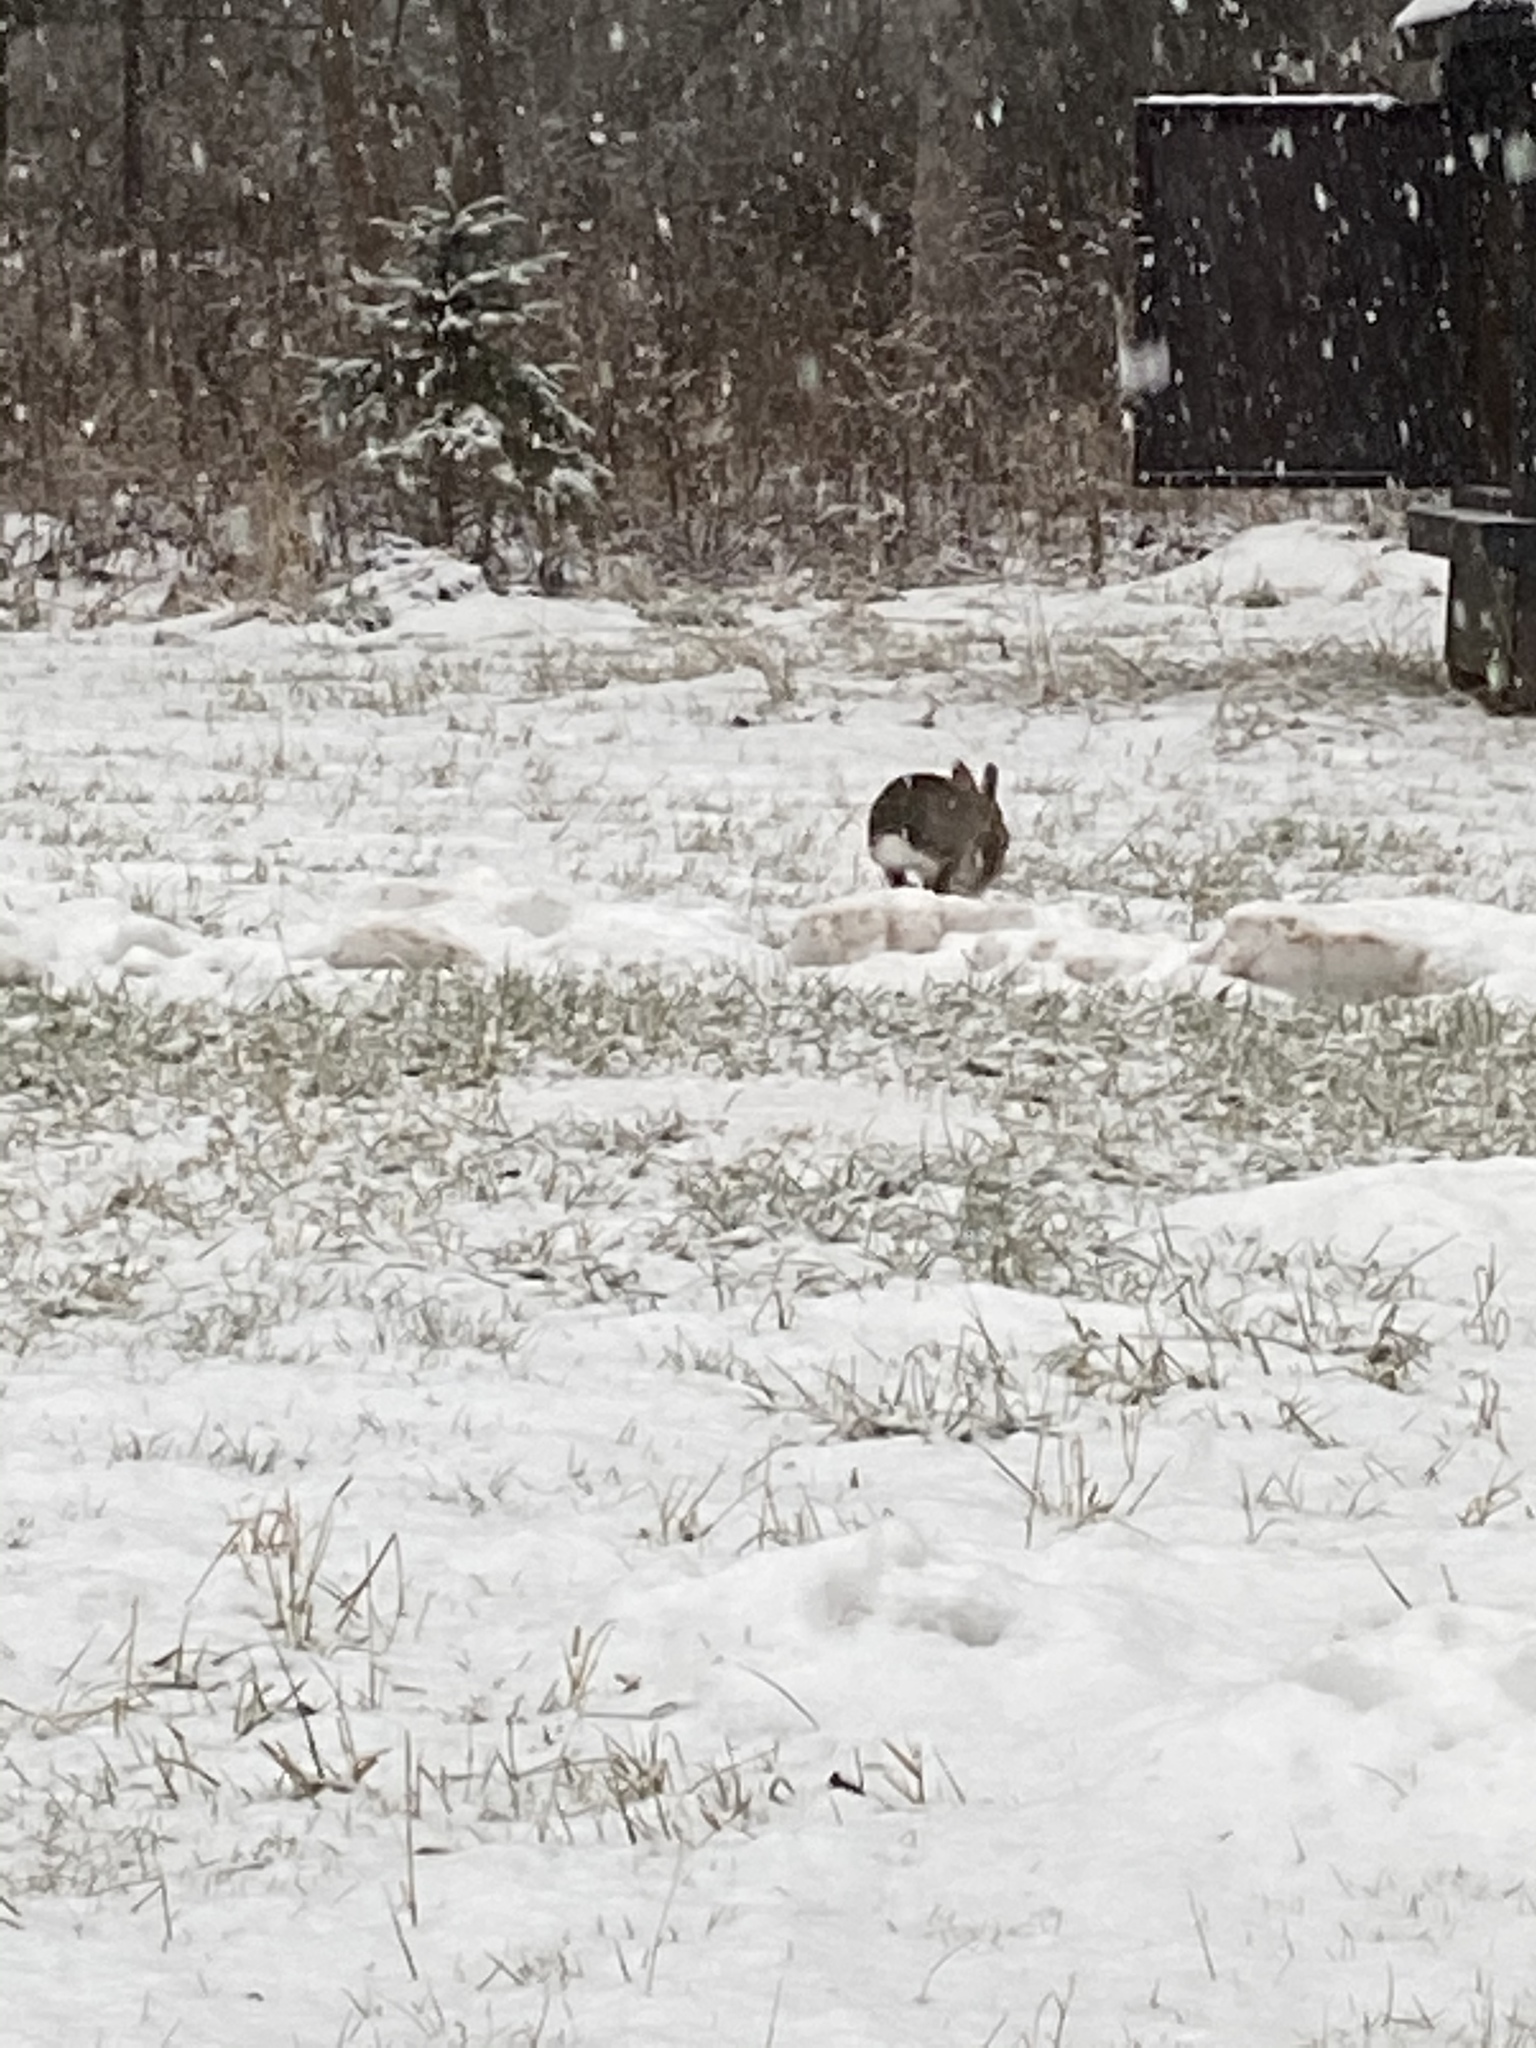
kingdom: Animalia
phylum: Chordata
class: Mammalia
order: Lagomorpha
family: Leporidae
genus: Sylvilagus
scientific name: Sylvilagus floridanus
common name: Eastern cottontail
